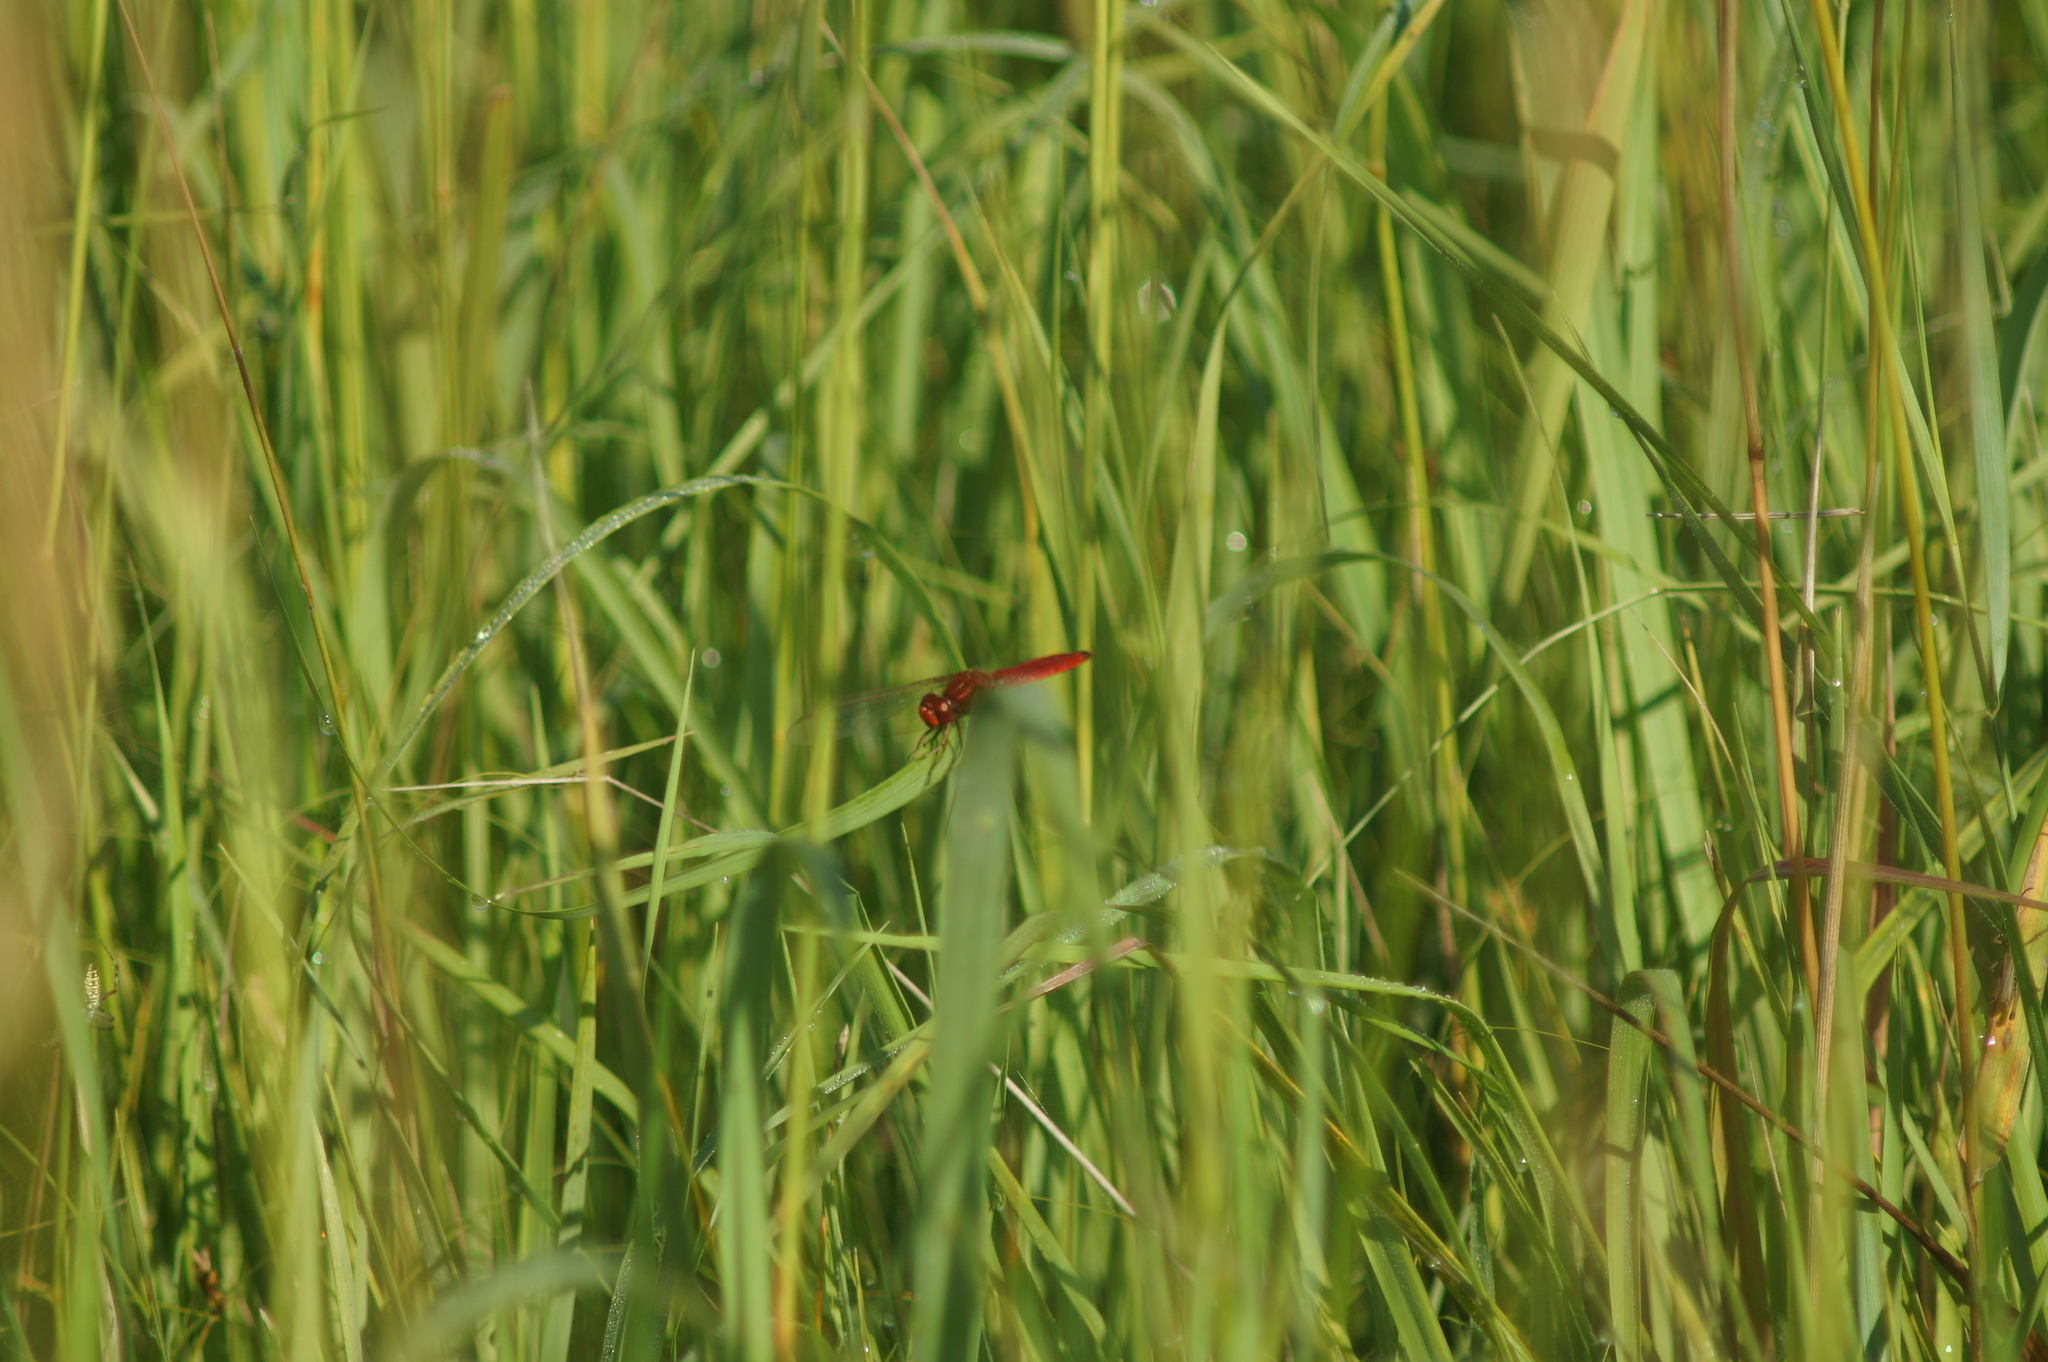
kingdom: Animalia
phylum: Arthropoda
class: Insecta
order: Odonata
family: Libellulidae
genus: Crocothemis
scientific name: Crocothemis erythraea
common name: Scarlet dragonfly
